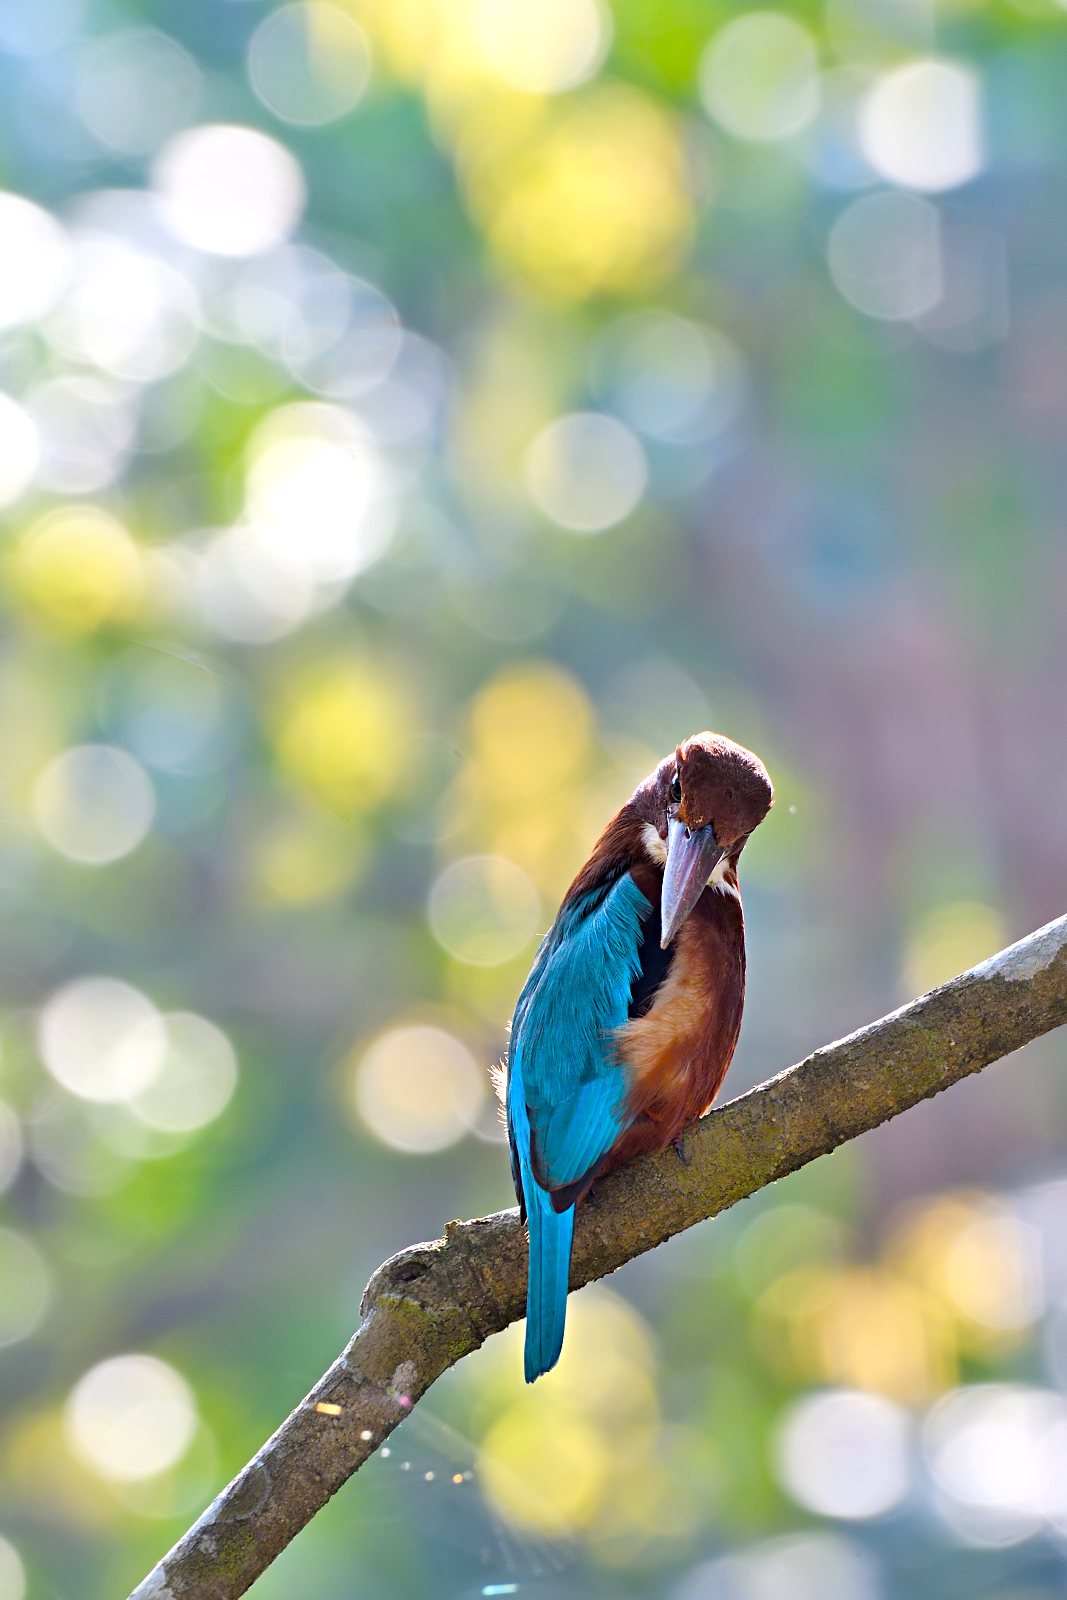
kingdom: Animalia
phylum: Chordata
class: Aves
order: Coraciiformes
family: Alcedinidae
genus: Halcyon
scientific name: Halcyon smyrnensis
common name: White-throated kingfisher
